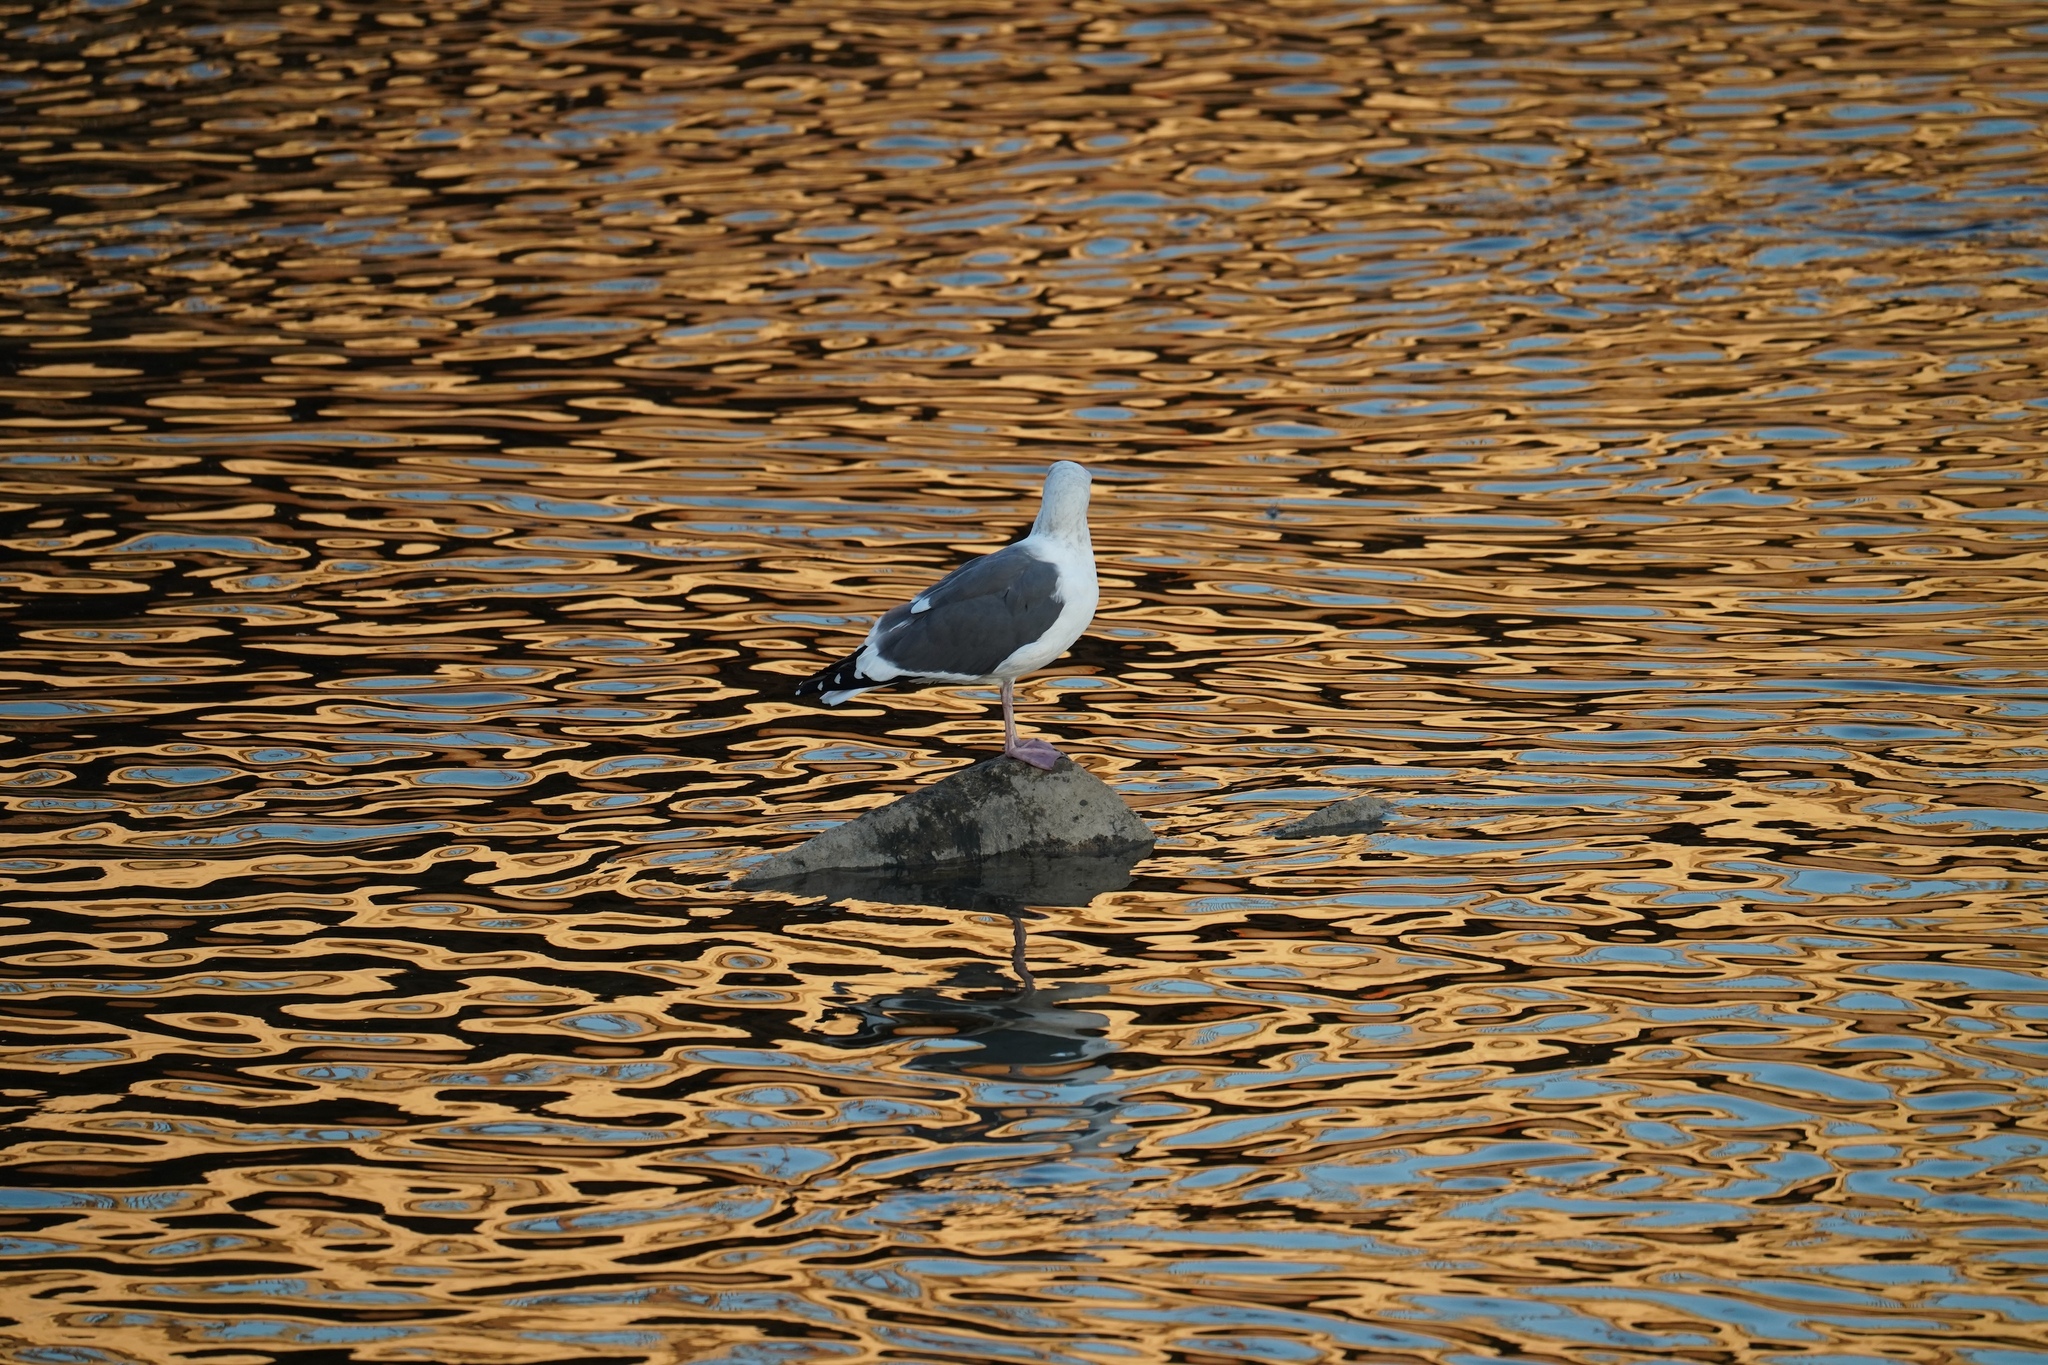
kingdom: Animalia
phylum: Chordata
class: Aves
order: Charadriiformes
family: Laridae
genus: Larus
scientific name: Larus occidentalis
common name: Western gull
